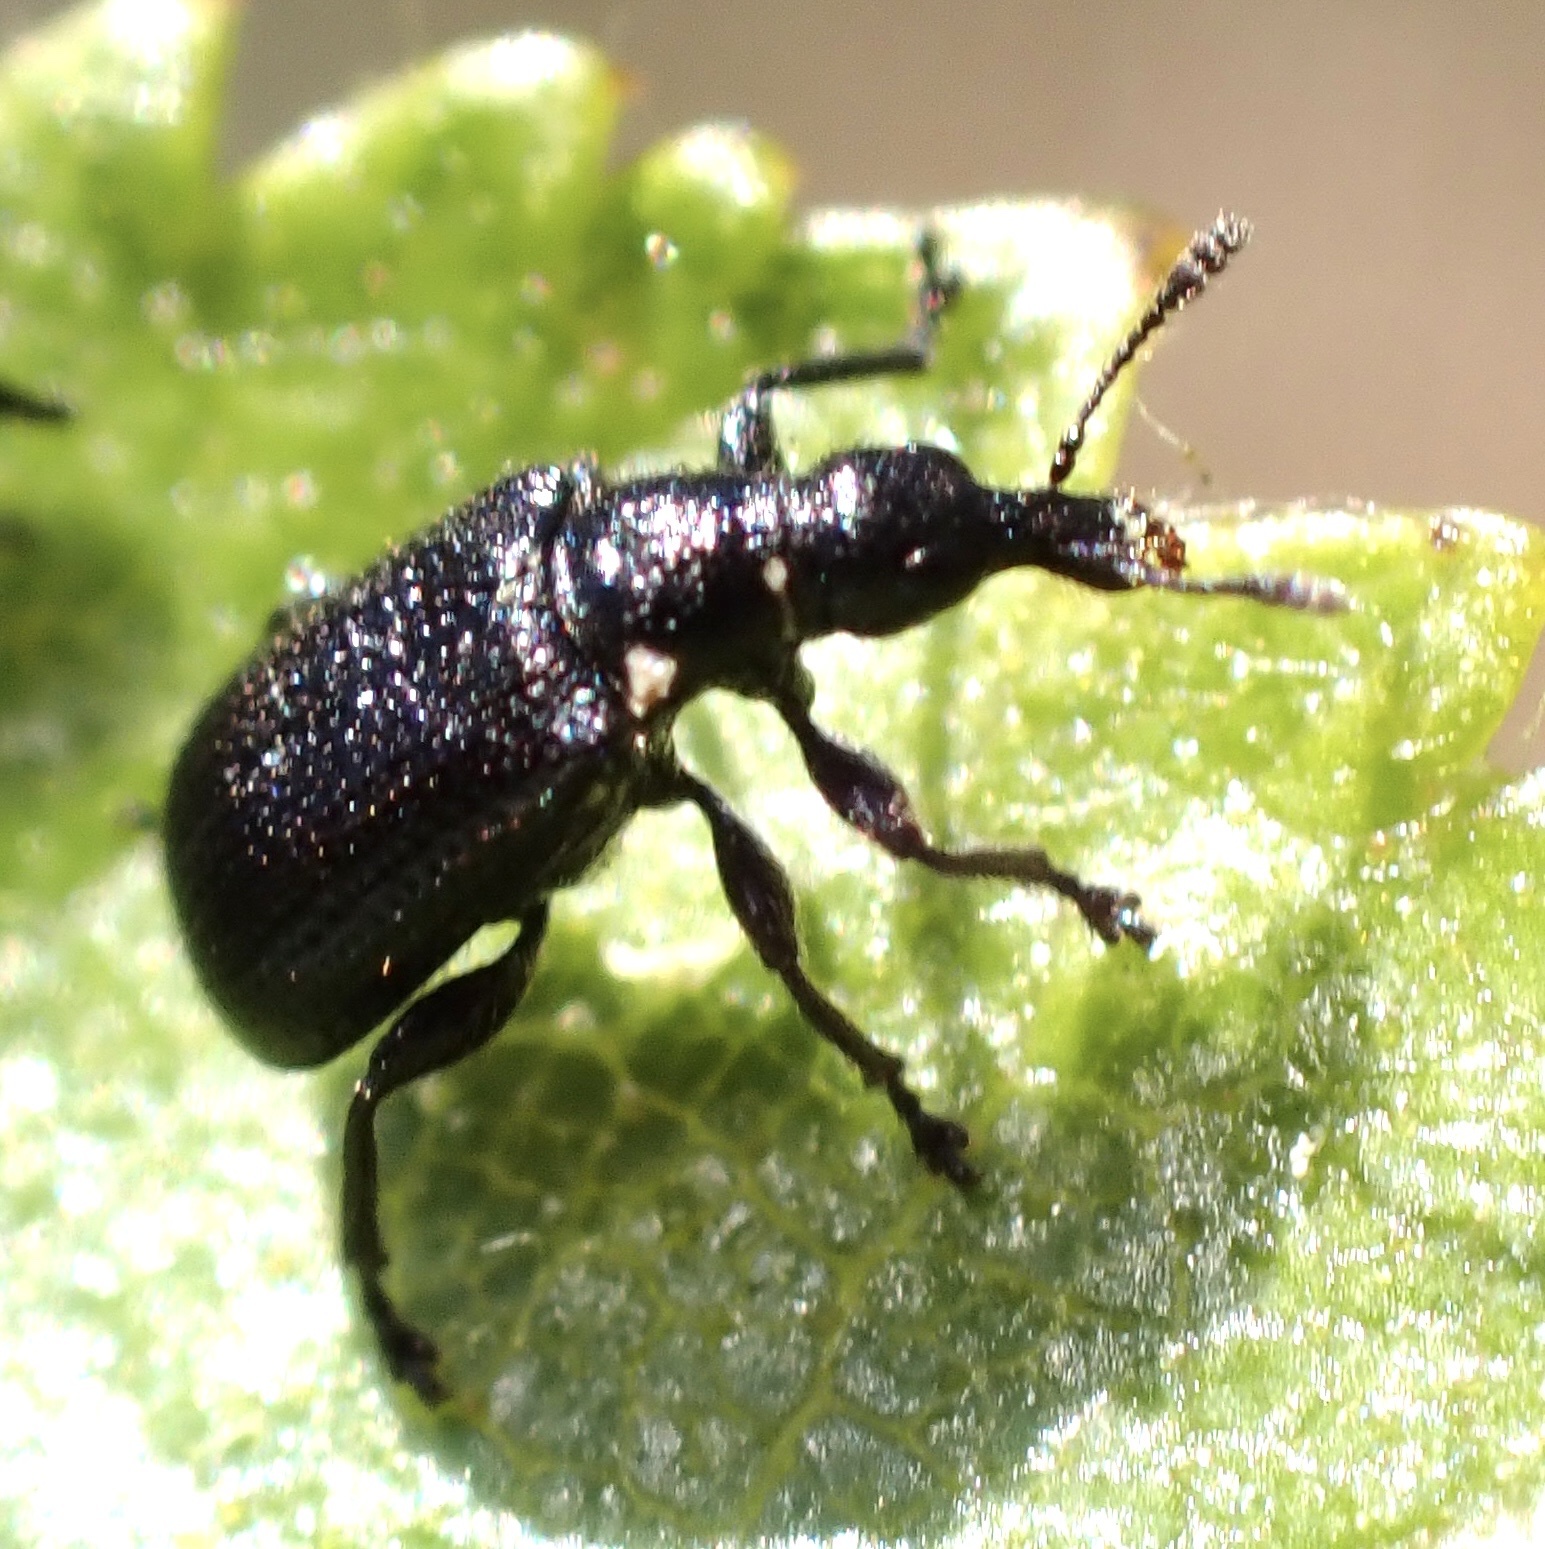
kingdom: Animalia
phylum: Arthropoda
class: Insecta
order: Coleoptera
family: Attelabidae
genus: Deporaus
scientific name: Deporaus betulae
